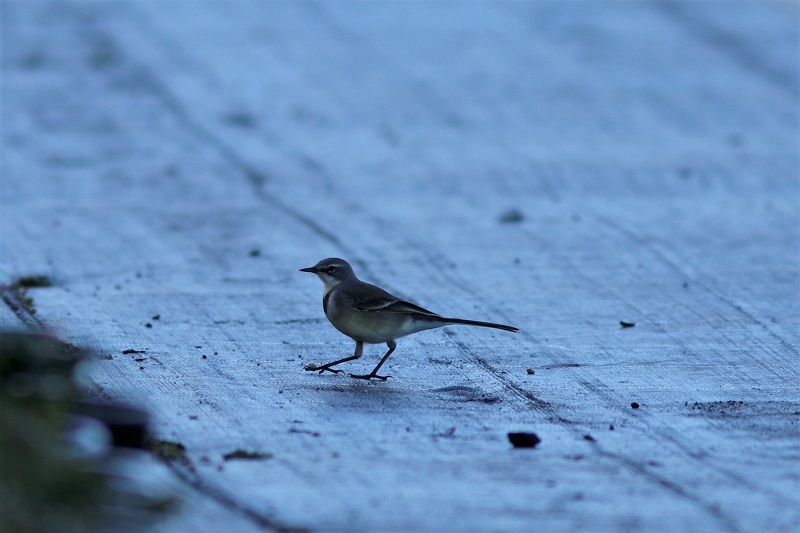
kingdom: Animalia
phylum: Chordata
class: Aves
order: Passeriformes
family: Motacillidae
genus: Motacilla
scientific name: Motacilla capensis
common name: Cape wagtail
